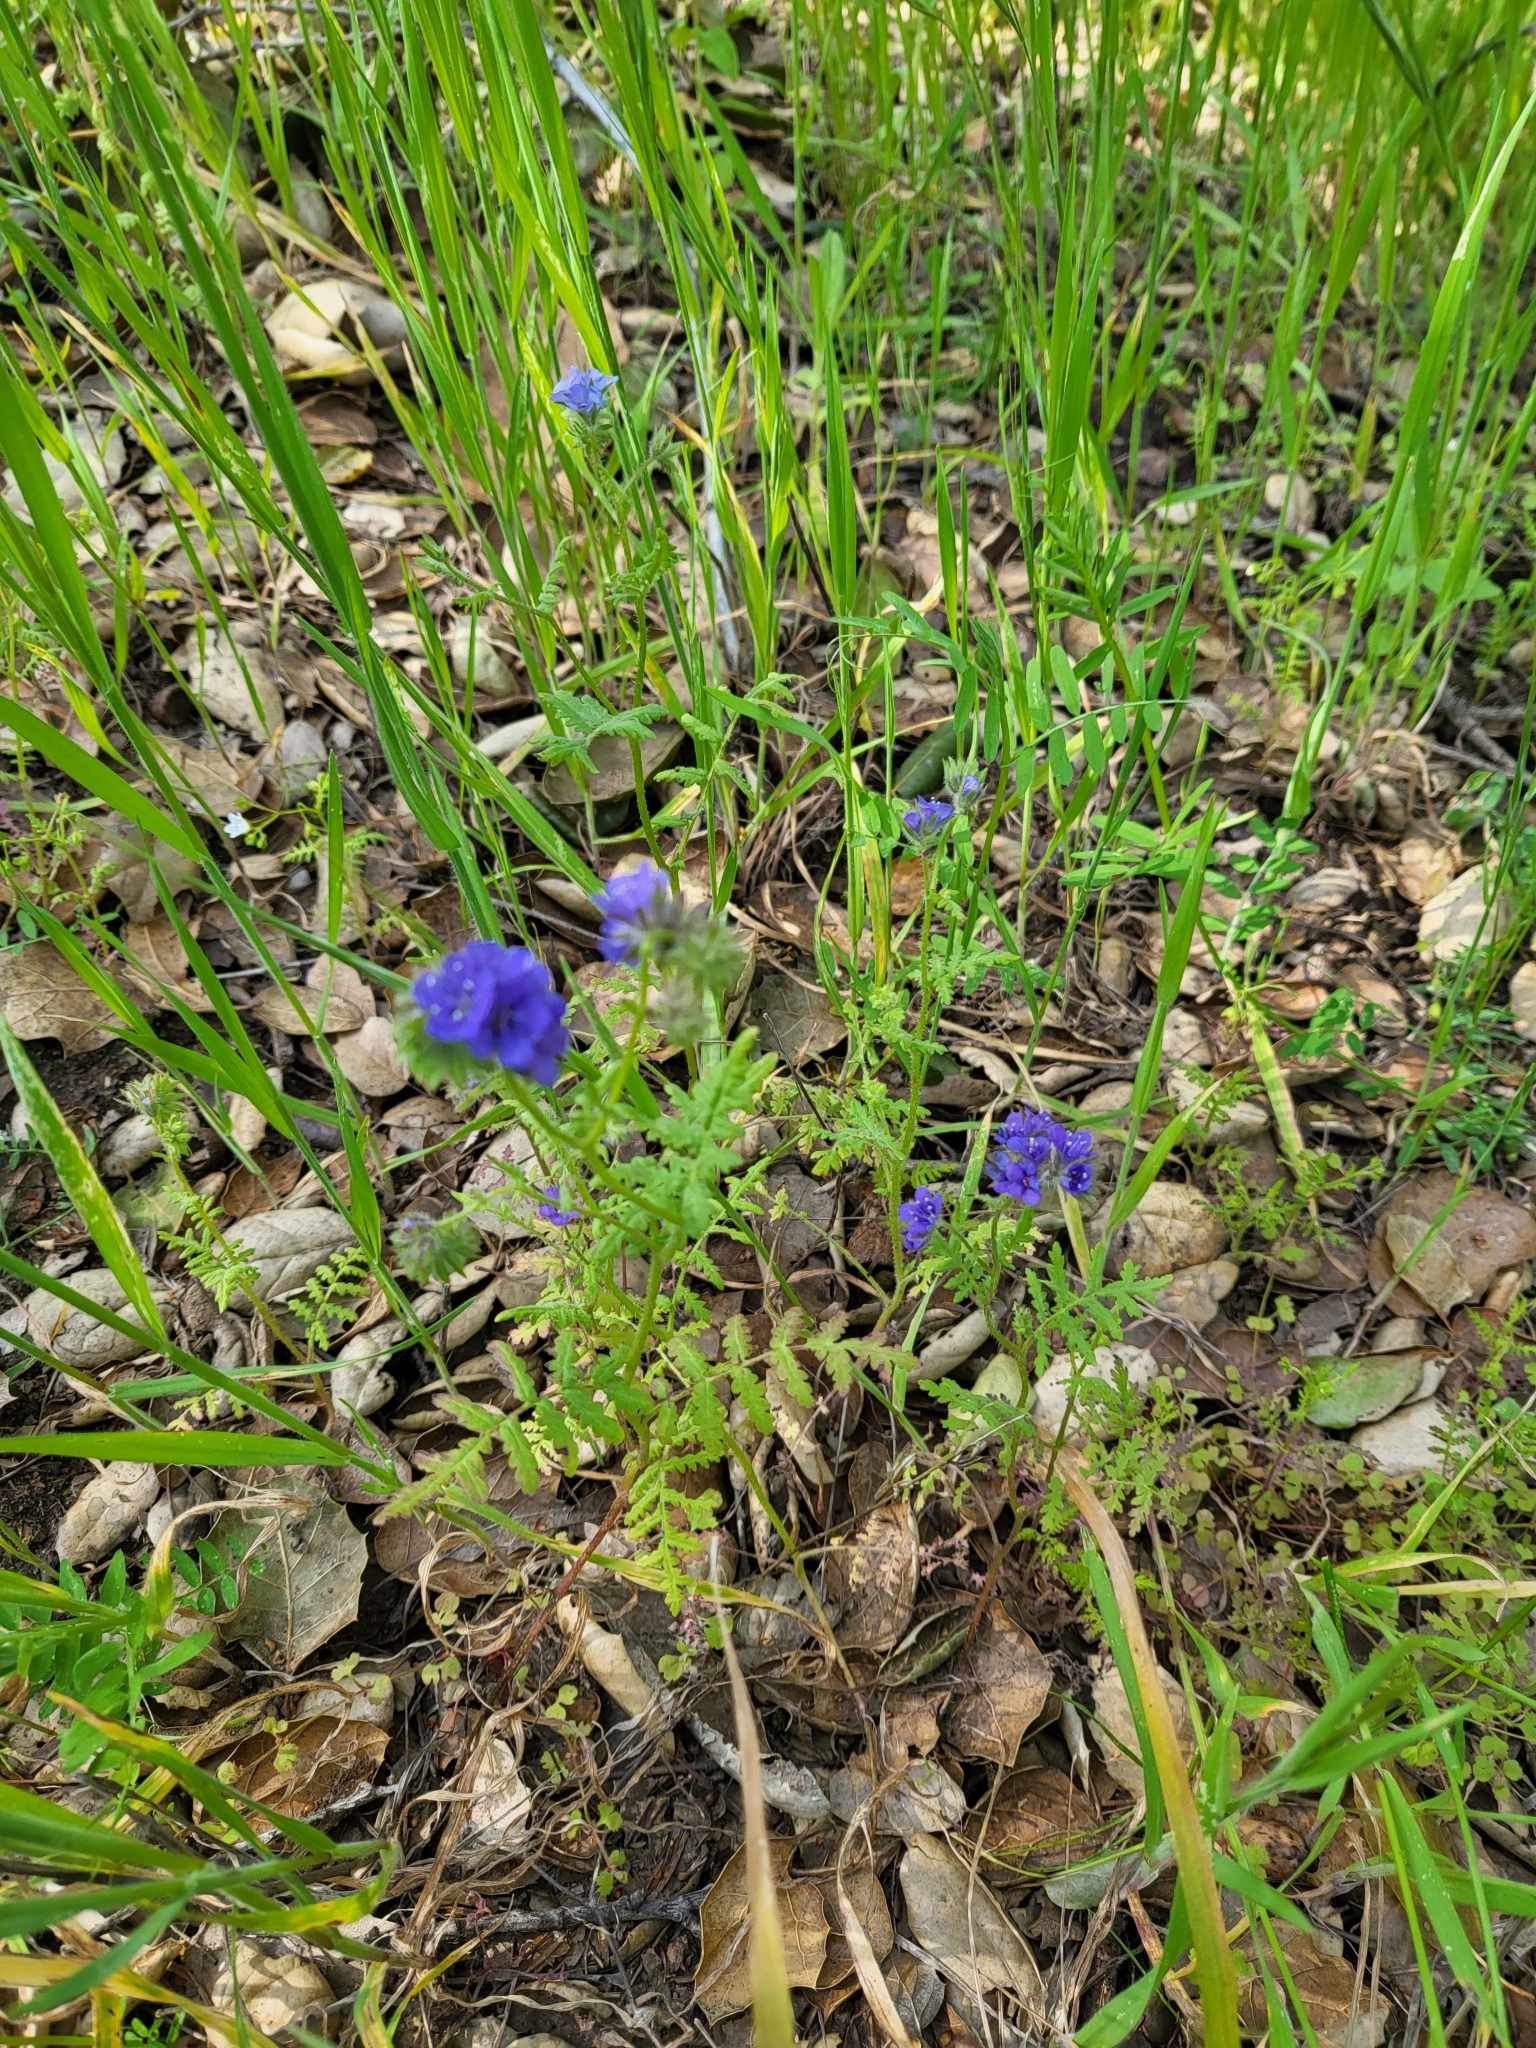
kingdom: Plantae
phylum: Tracheophyta
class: Magnoliopsida
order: Boraginales
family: Hydrophyllaceae
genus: Phacelia
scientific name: Phacelia distans
